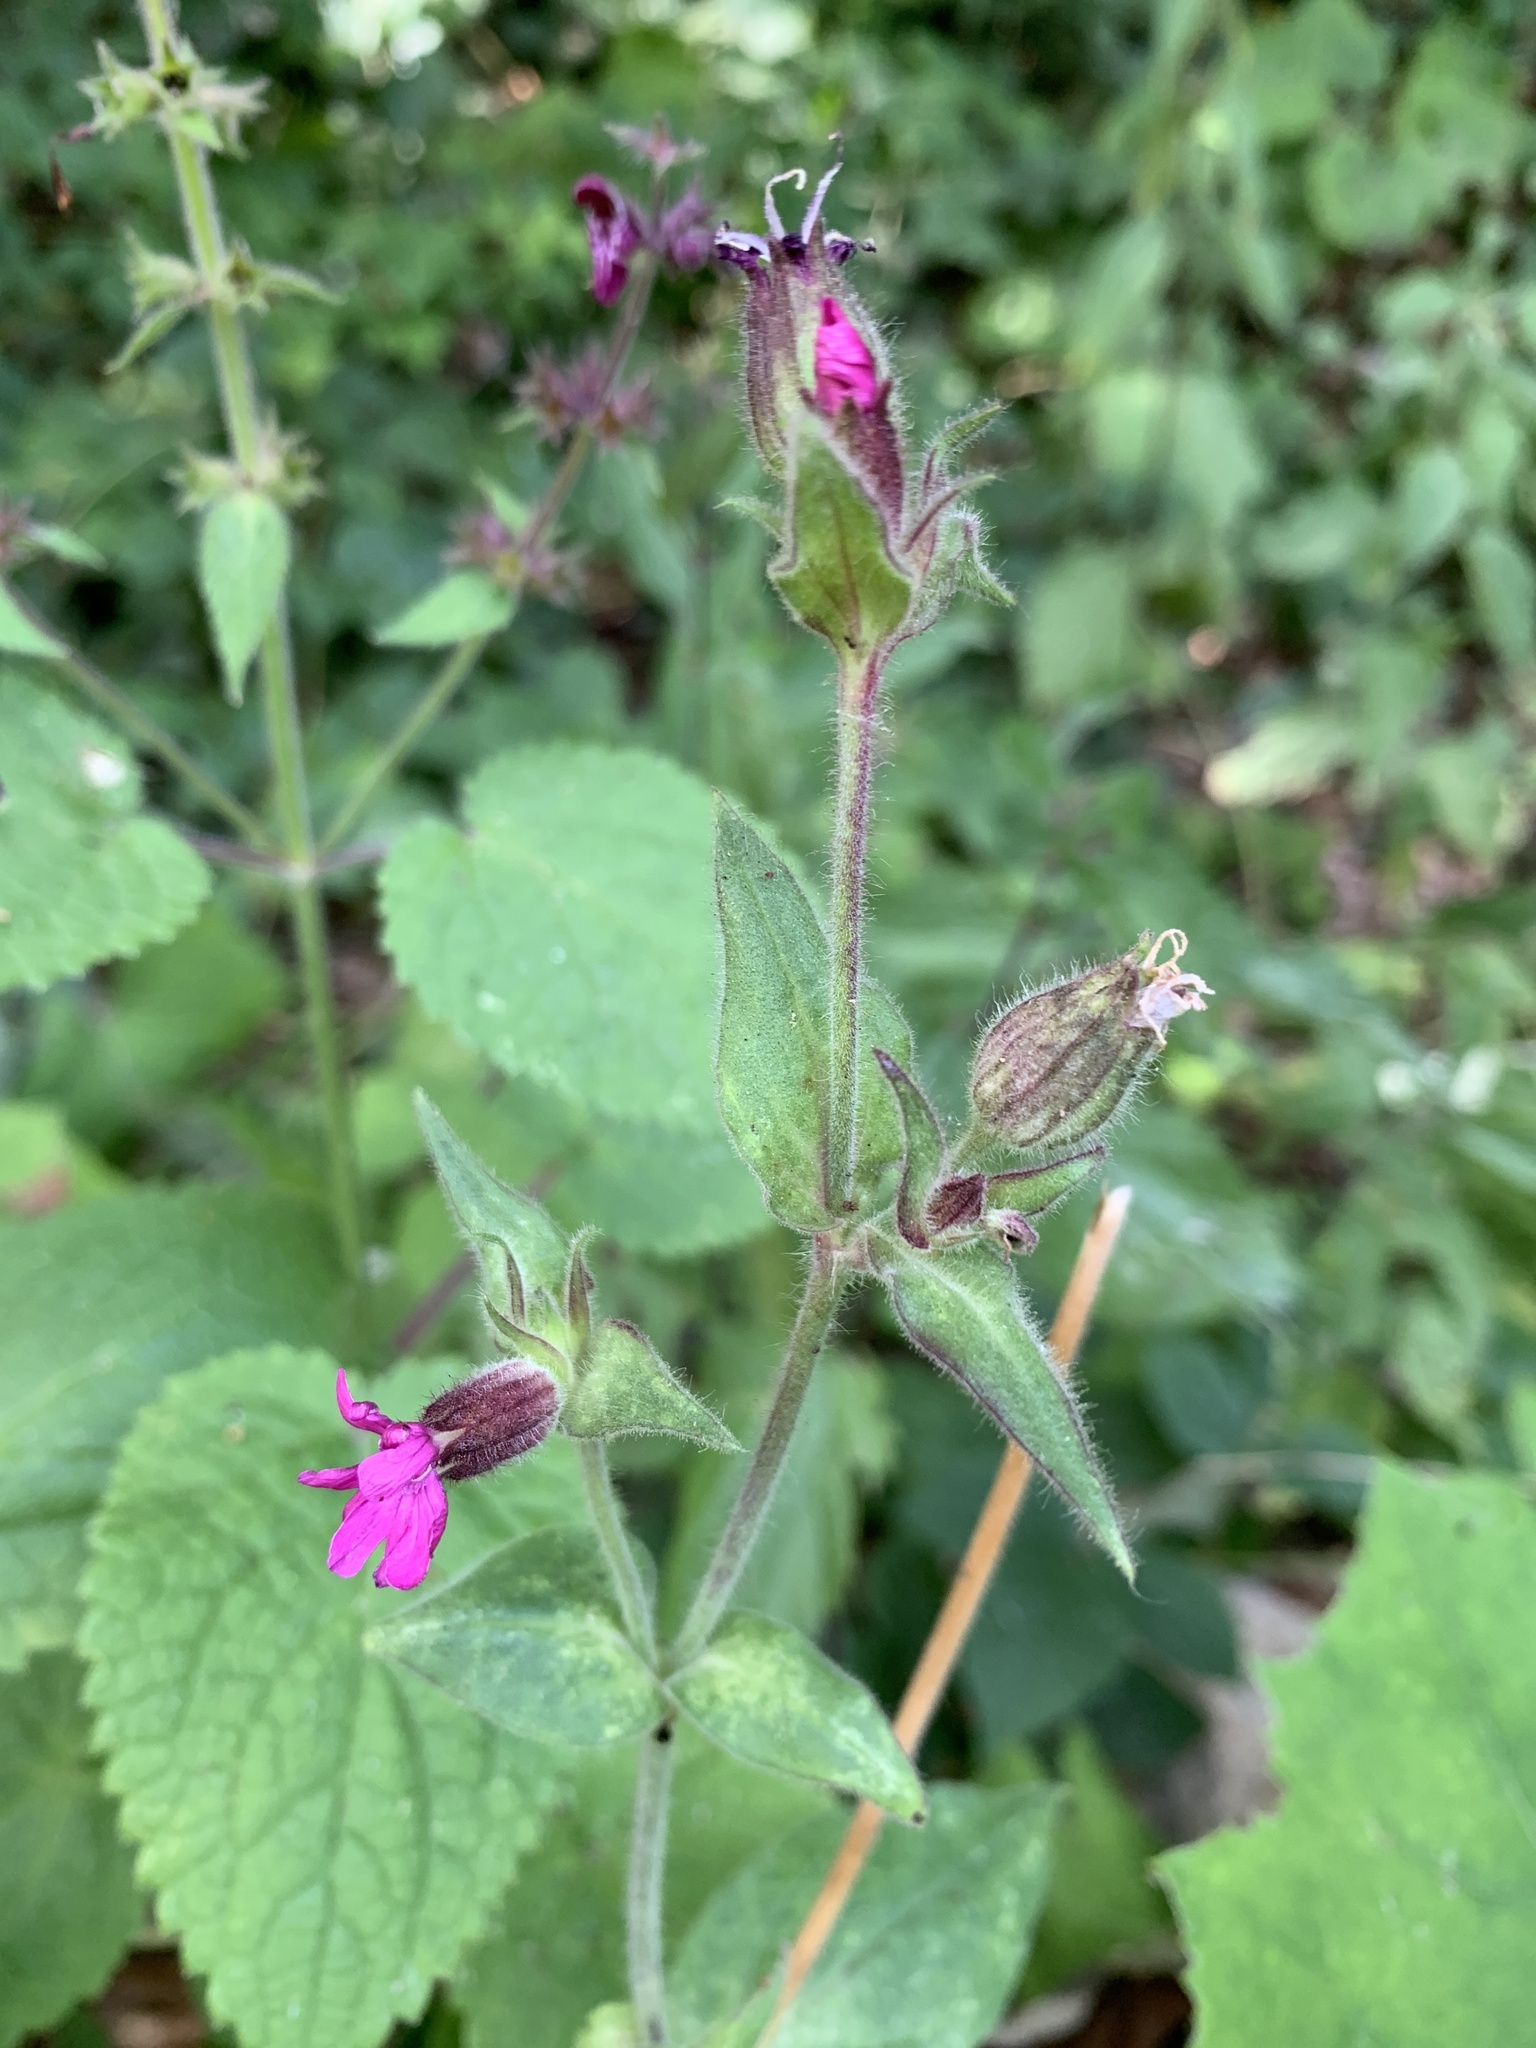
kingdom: Plantae
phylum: Tracheophyta
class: Magnoliopsida
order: Caryophyllales
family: Caryophyllaceae
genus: Silene
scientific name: Silene dioica
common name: Red campion
